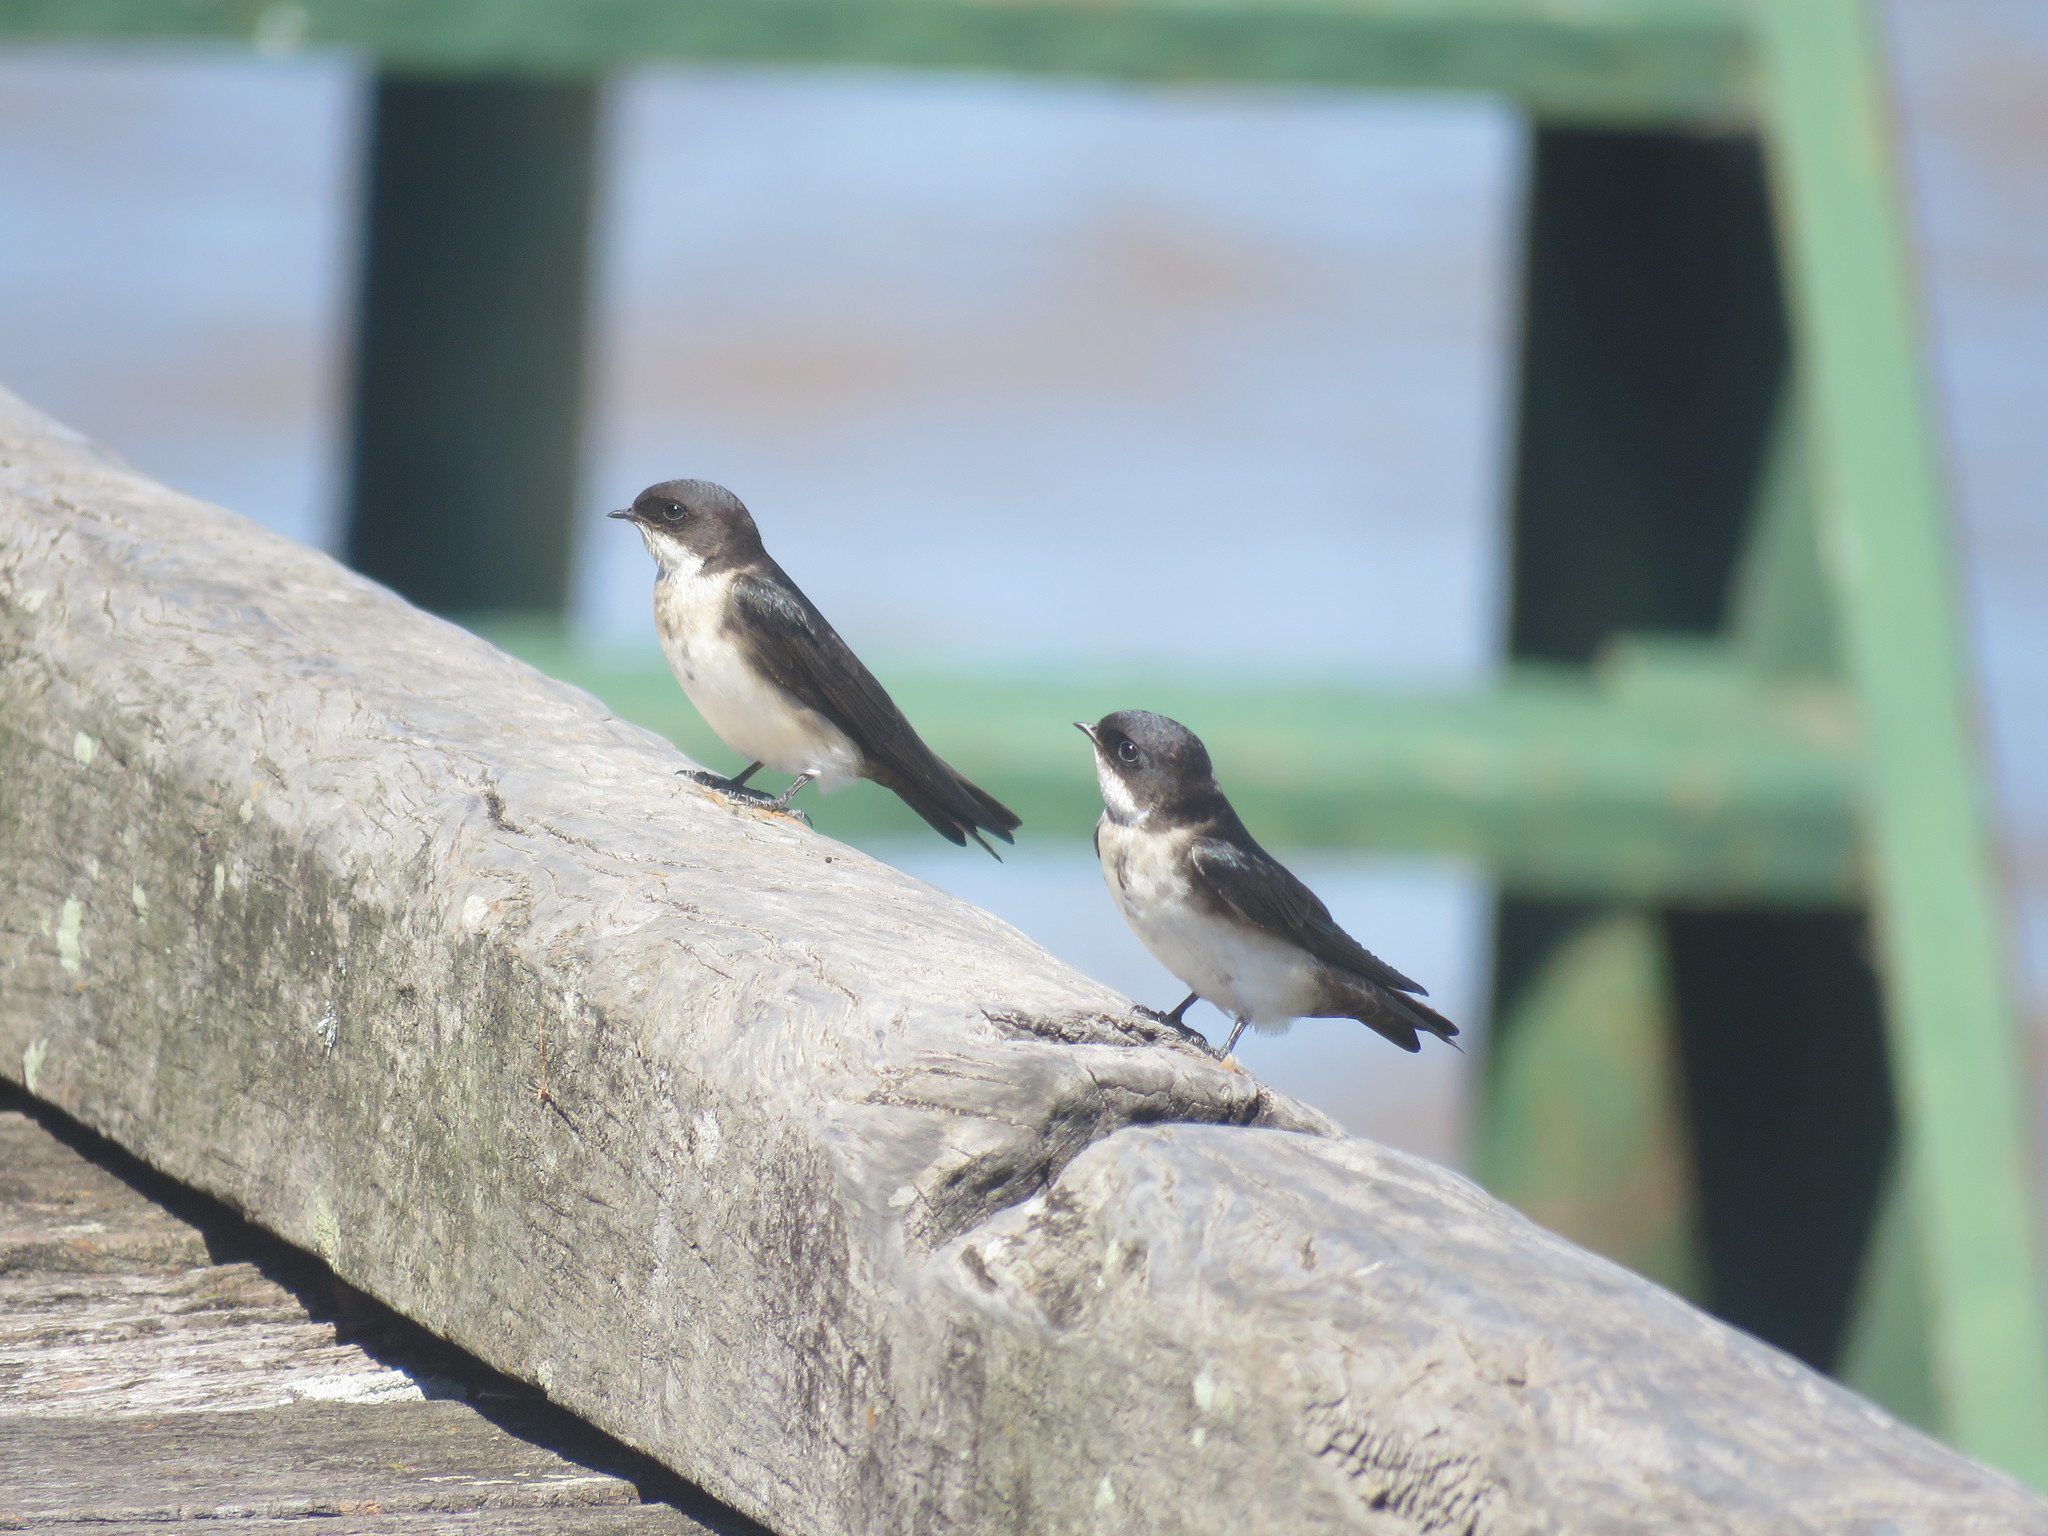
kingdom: Animalia
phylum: Chordata
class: Aves
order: Passeriformes
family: Hirundinidae
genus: Notiochelidon
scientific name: Notiochelidon cyanoleuca
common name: Blue-and-white swallow
